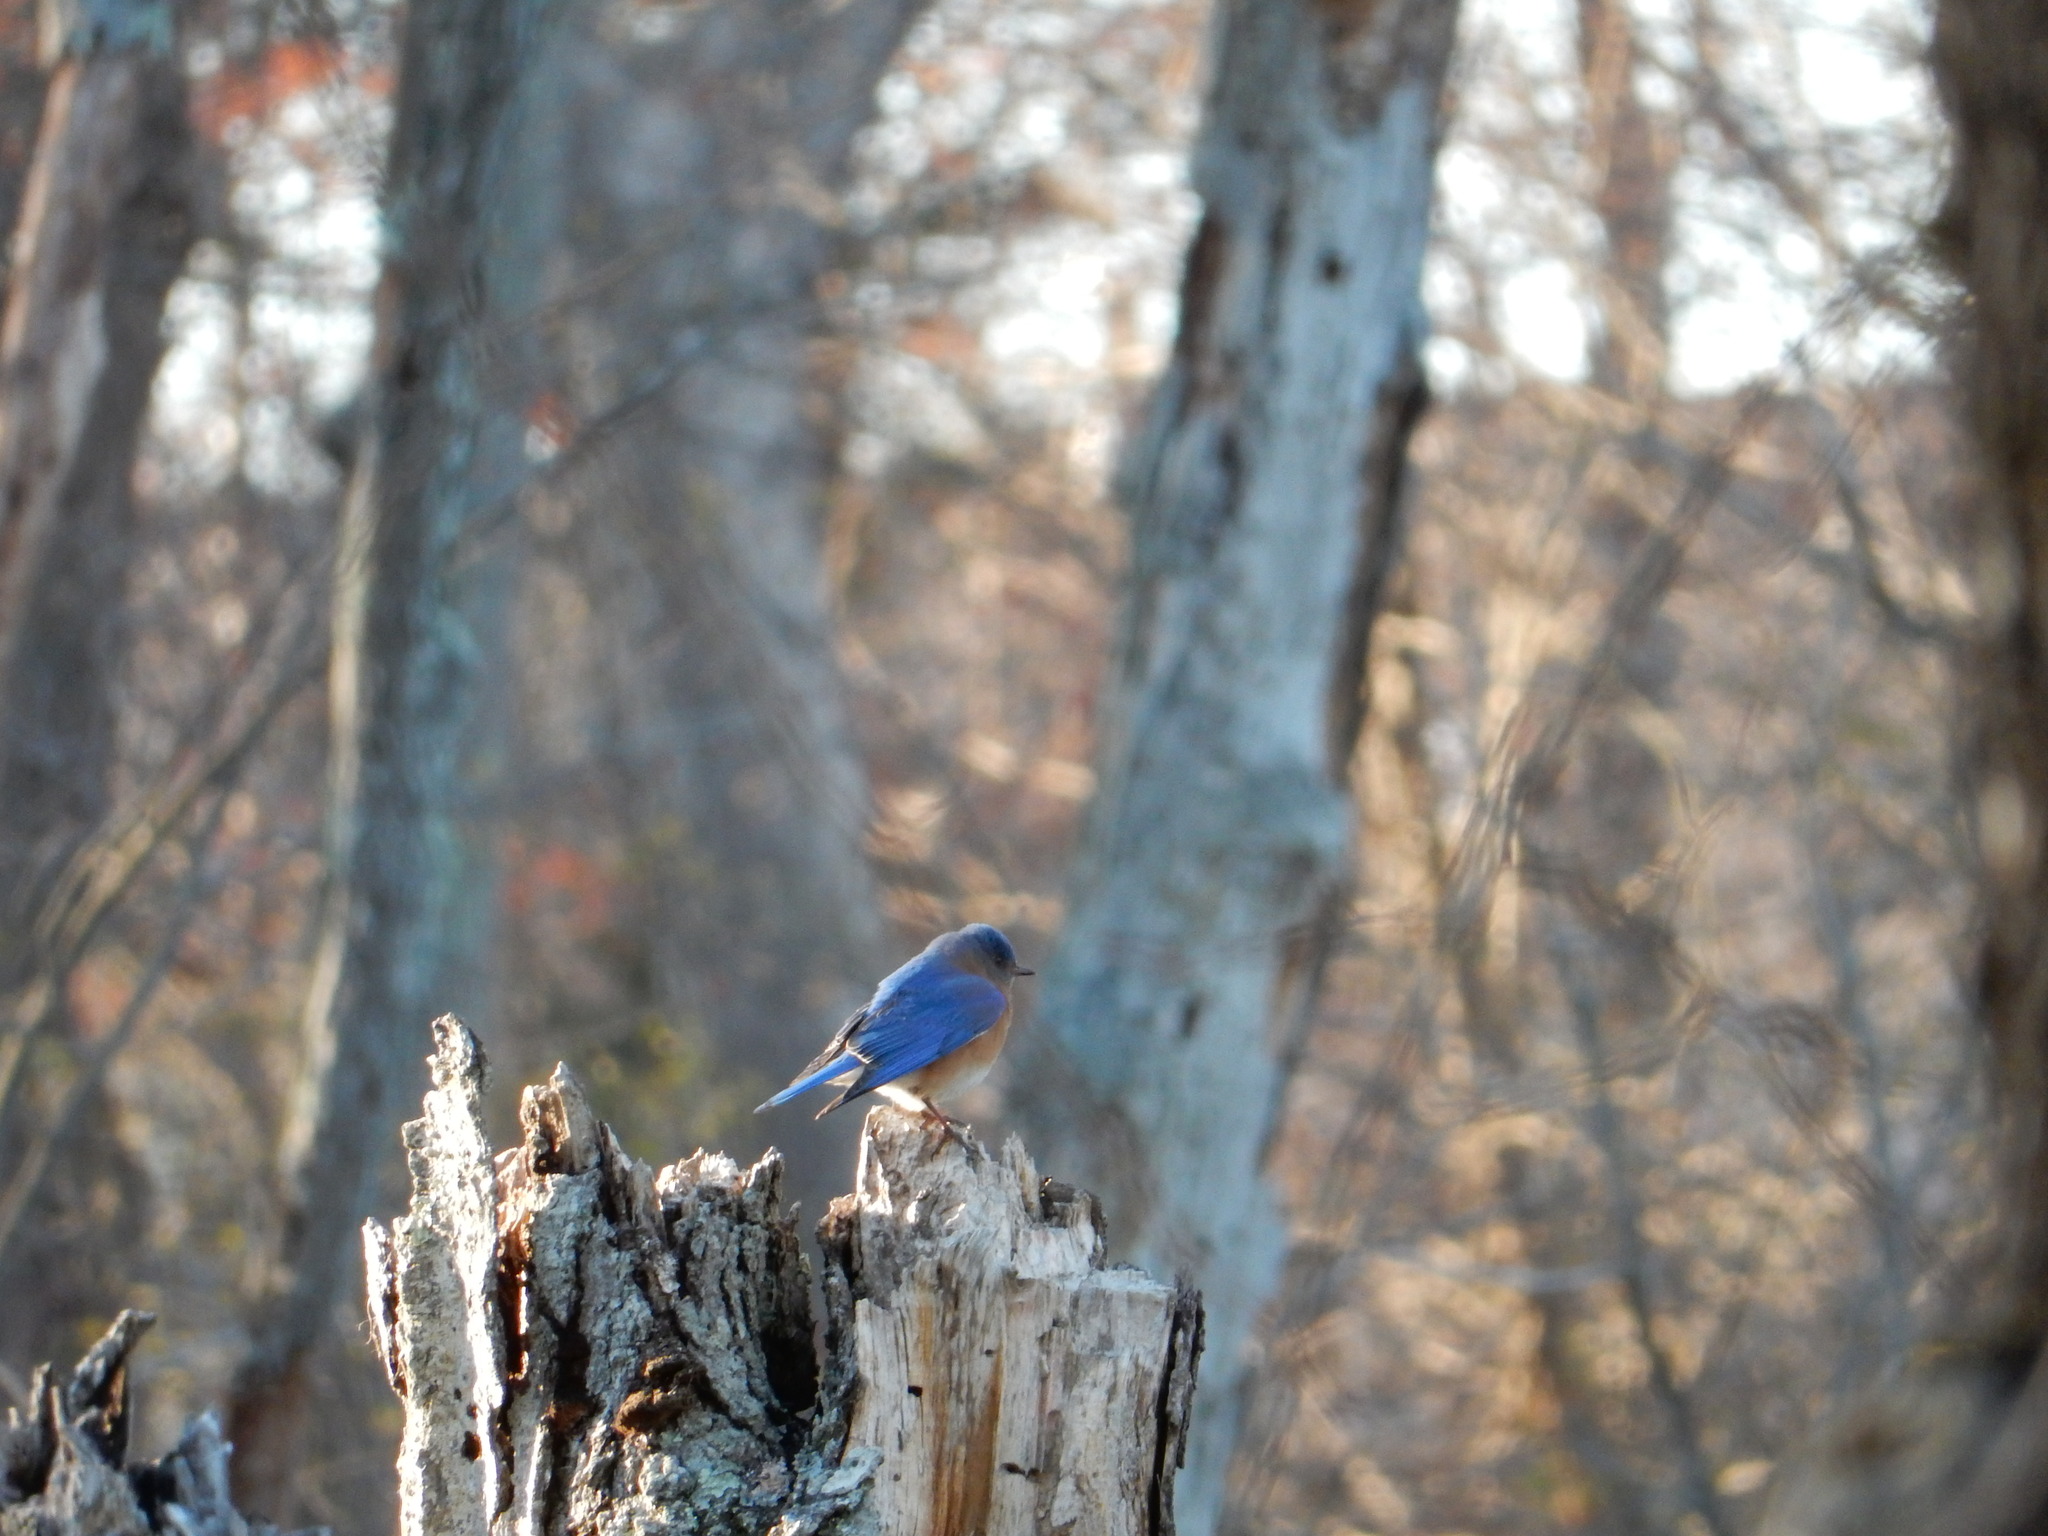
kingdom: Animalia
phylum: Chordata
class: Aves
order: Passeriformes
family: Turdidae
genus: Sialia
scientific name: Sialia sialis
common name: Eastern bluebird
